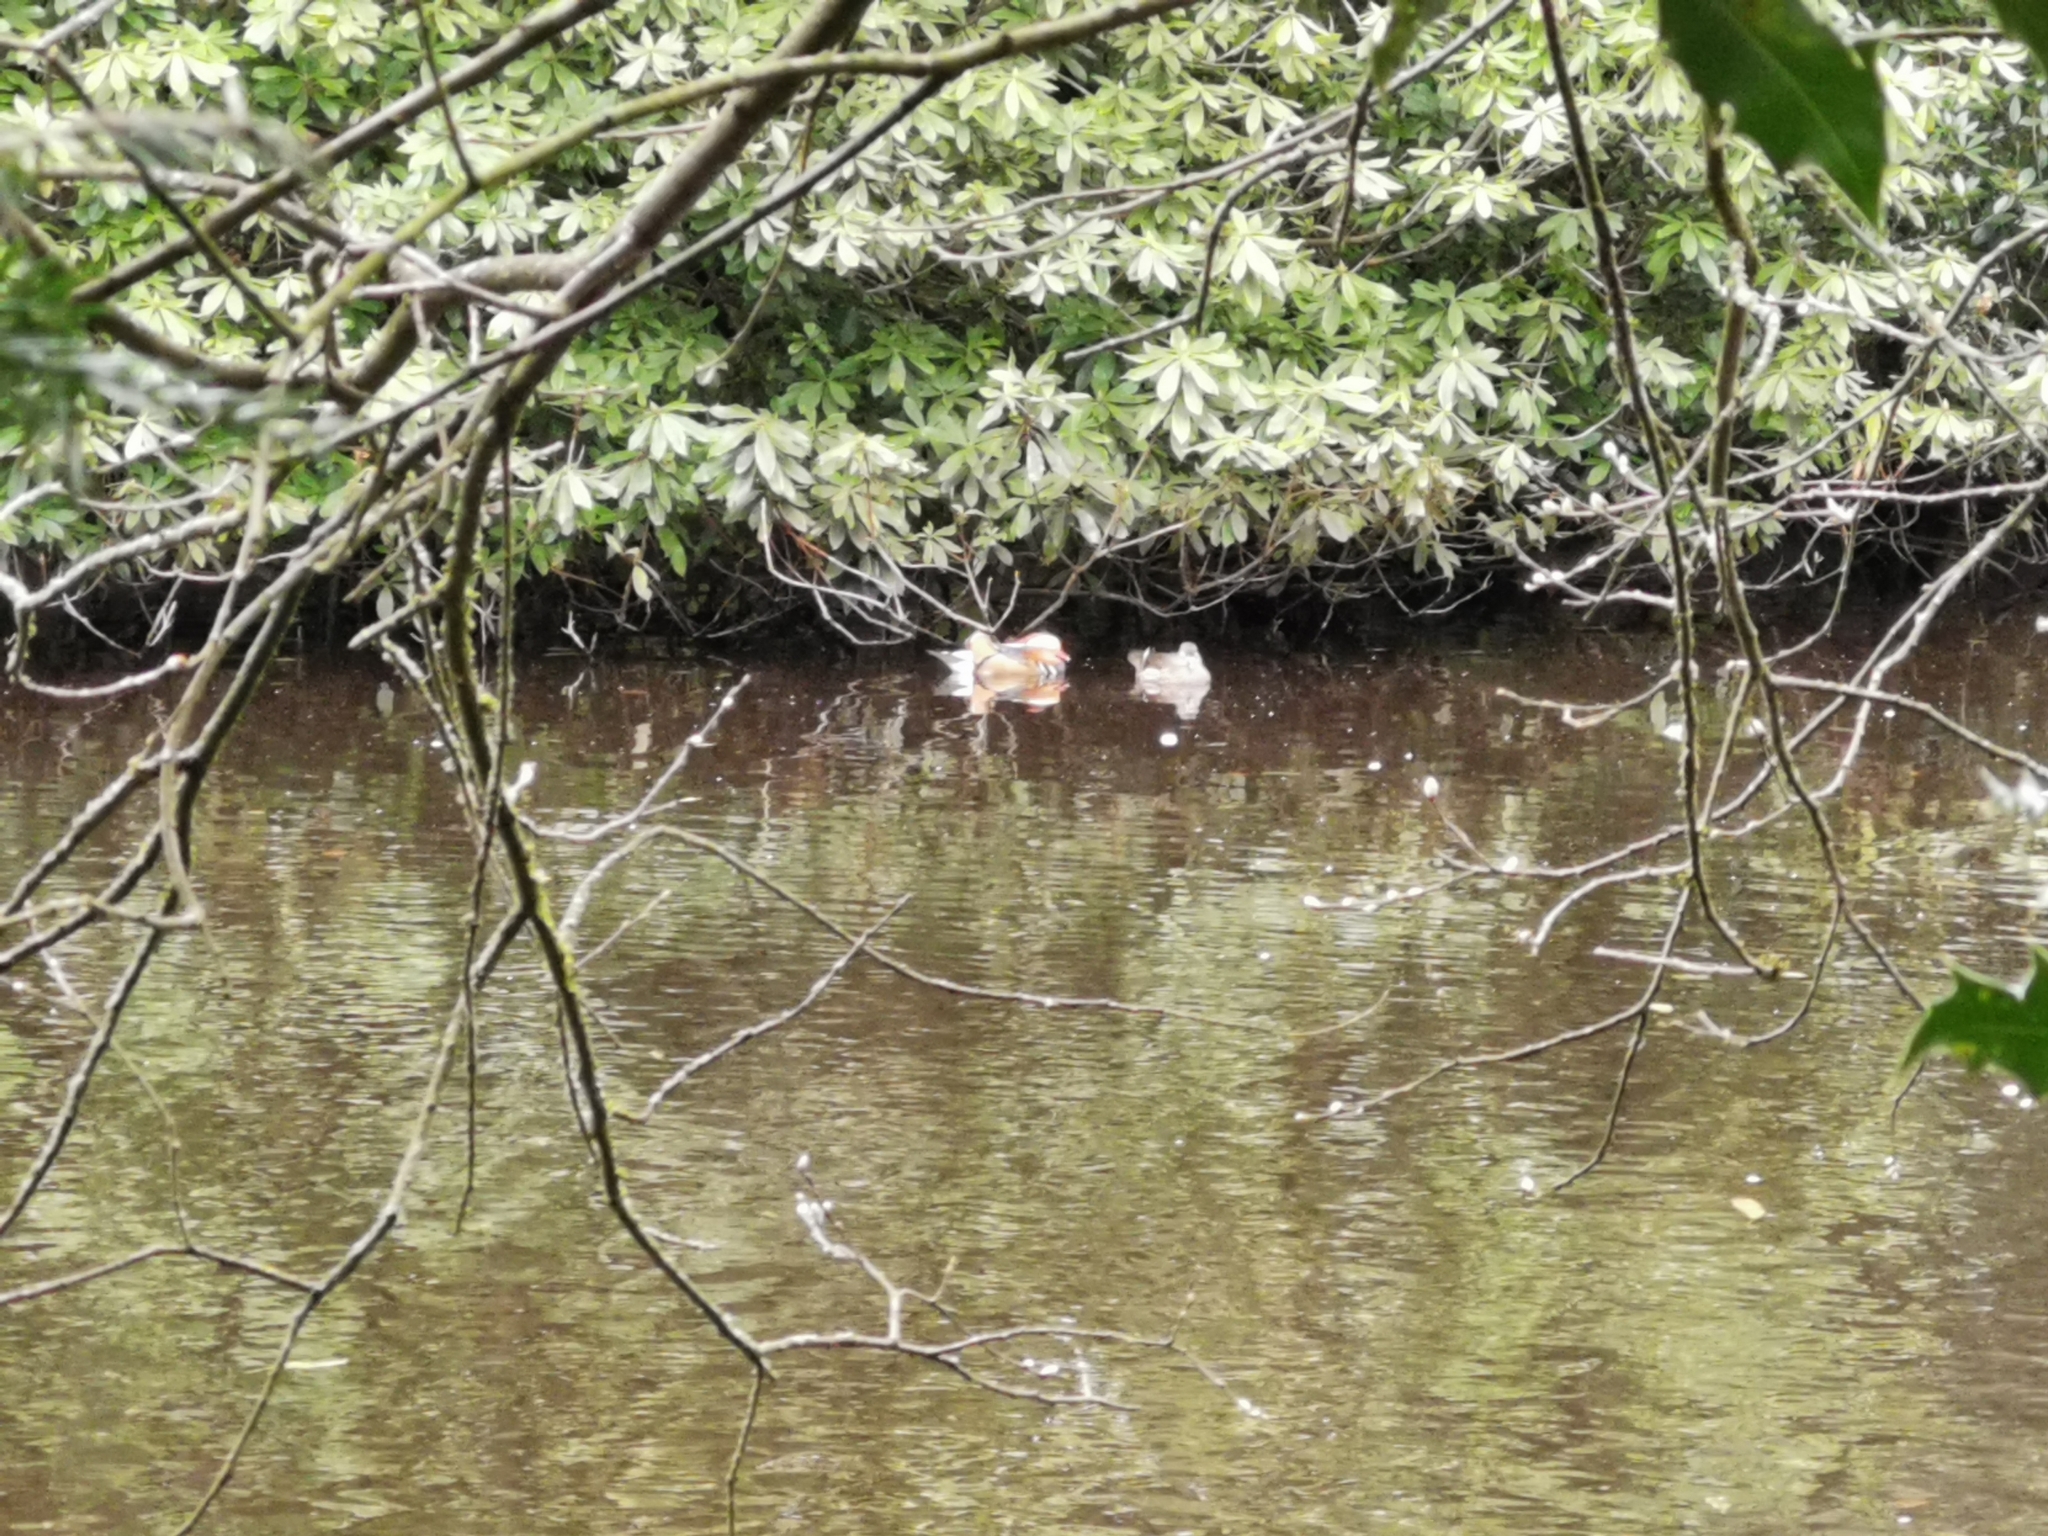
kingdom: Animalia
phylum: Chordata
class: Aves
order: Anseriformes
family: Anatidae
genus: Aix
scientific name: Aix galericulata
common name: Mandarin duck
